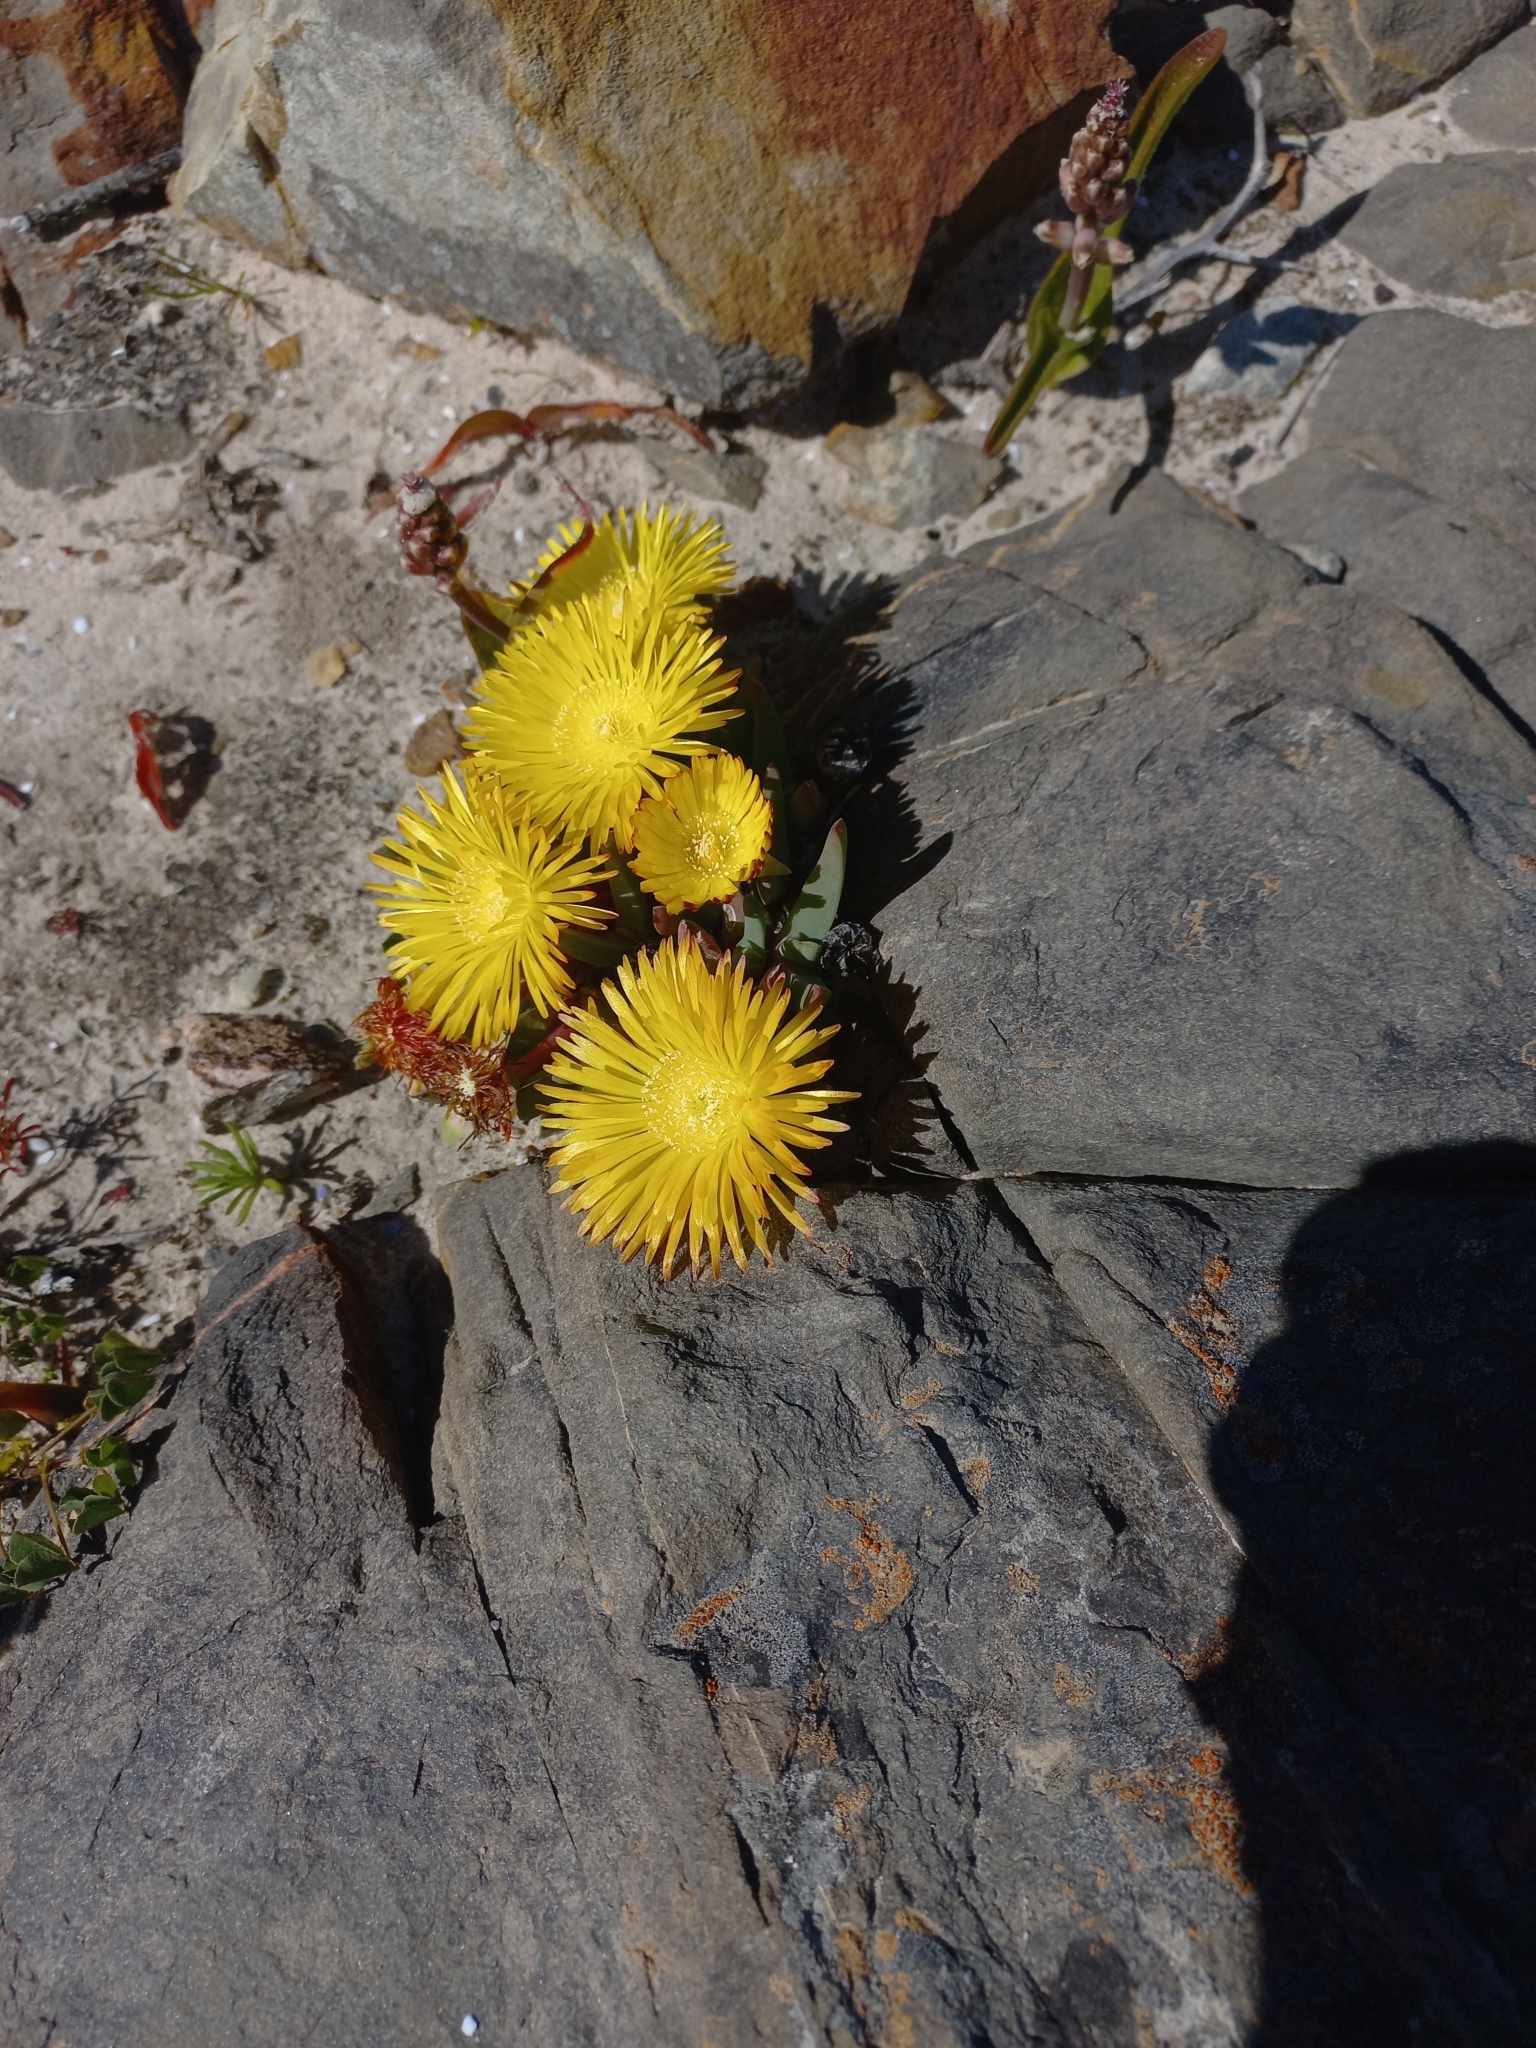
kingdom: Plantae
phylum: Tracheophyta
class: Magnoliopsida
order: Caryophyllales
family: Aizoaceae
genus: Cheiridopsis
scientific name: Cheiridopsis rostrata
